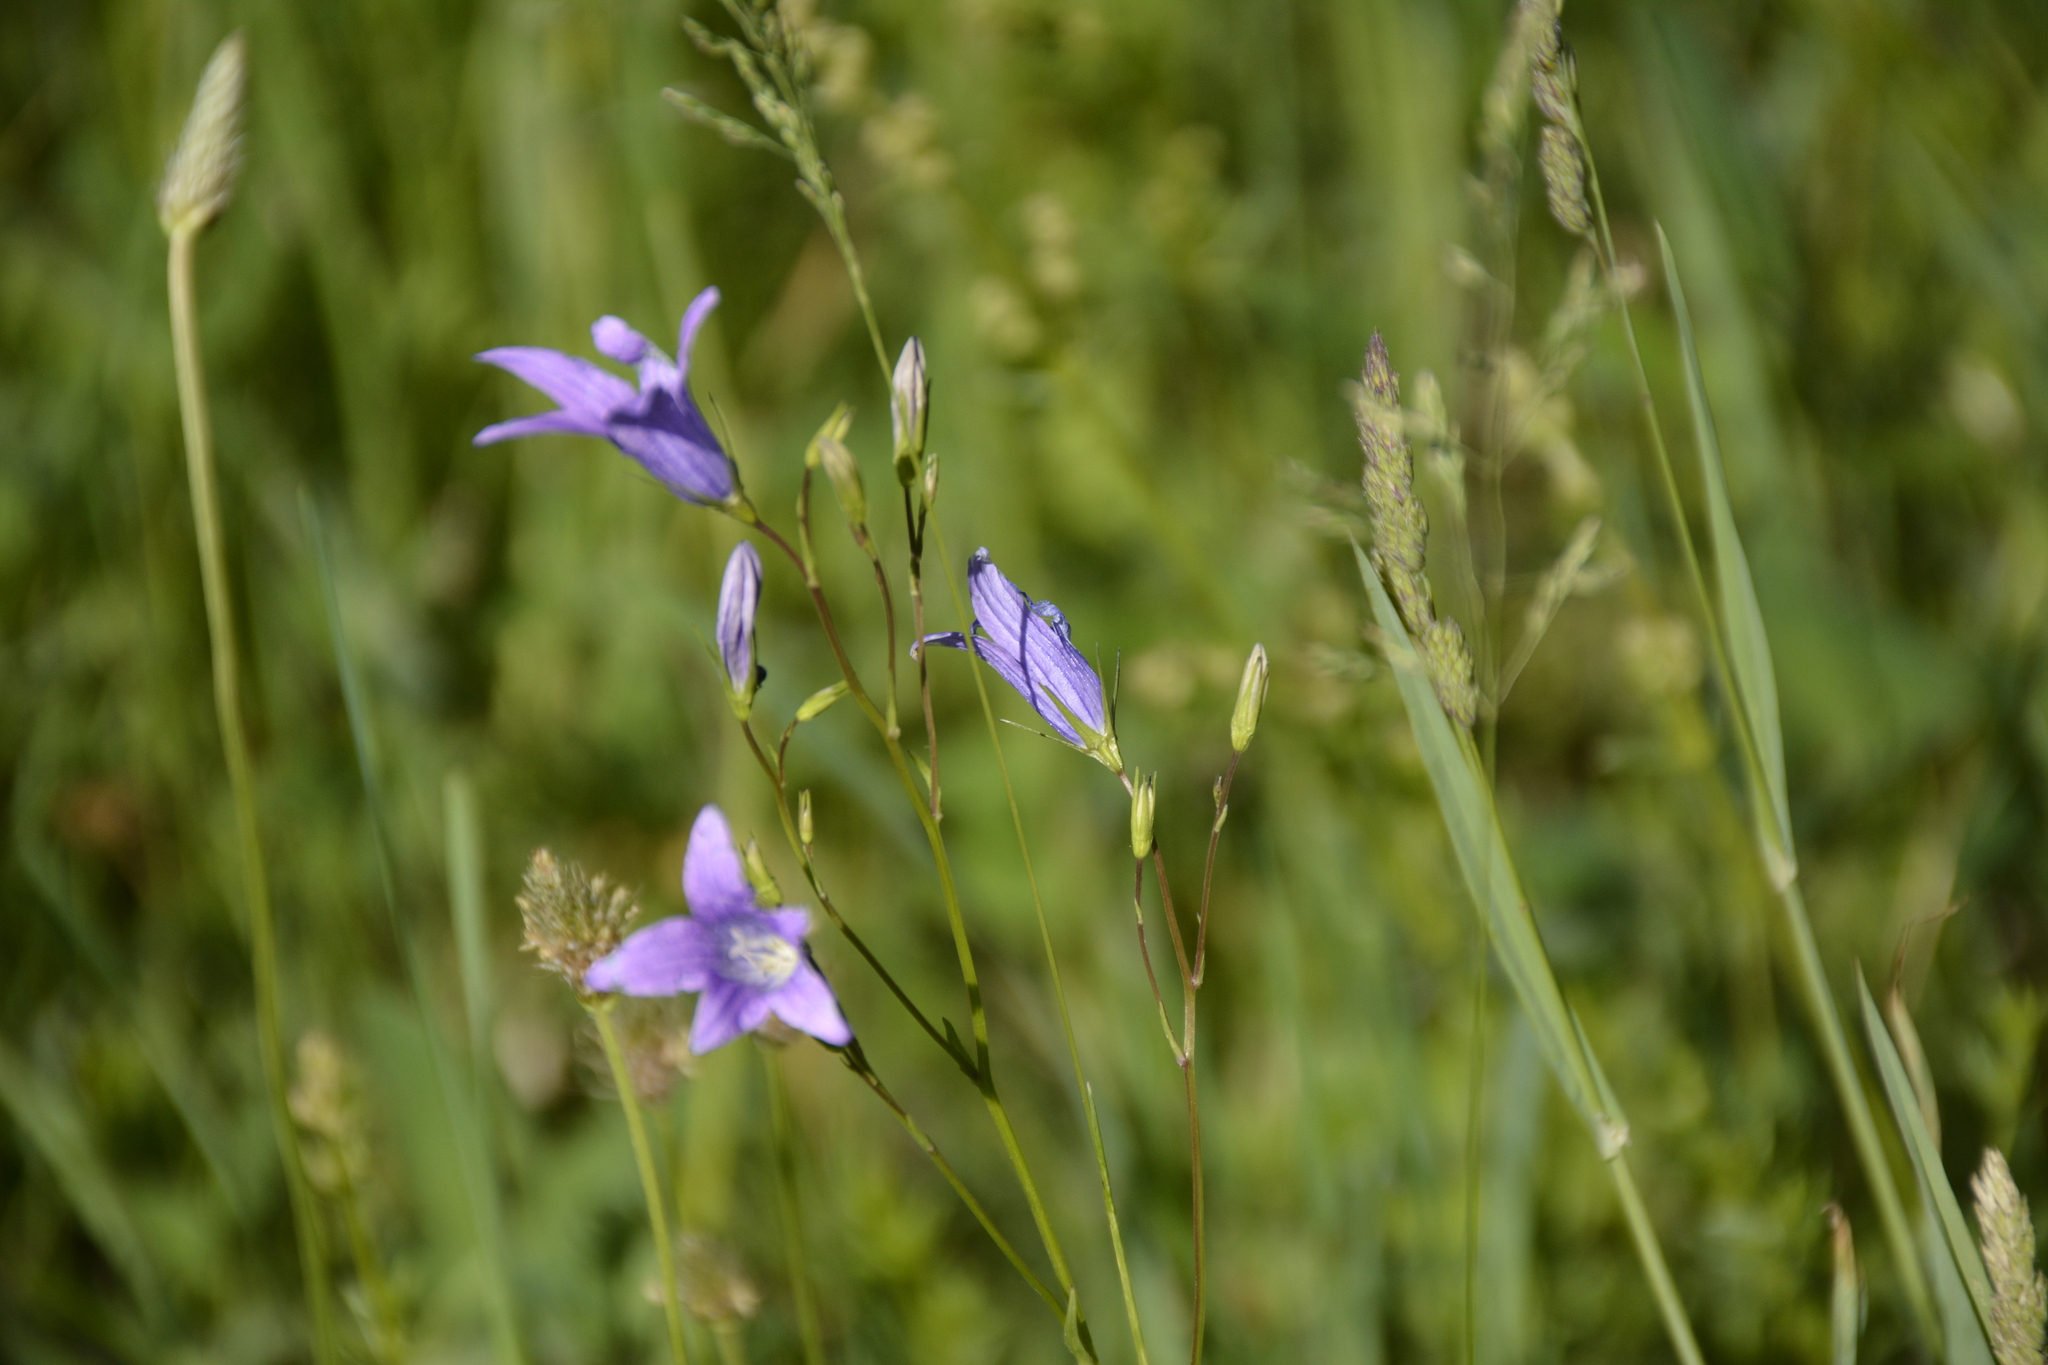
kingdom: Plantae
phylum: Tracheophyta
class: Magnoliopsida
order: Asterales
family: Campanulaceae
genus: Campanula
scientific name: Campanula patula
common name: Spreading bellflower
